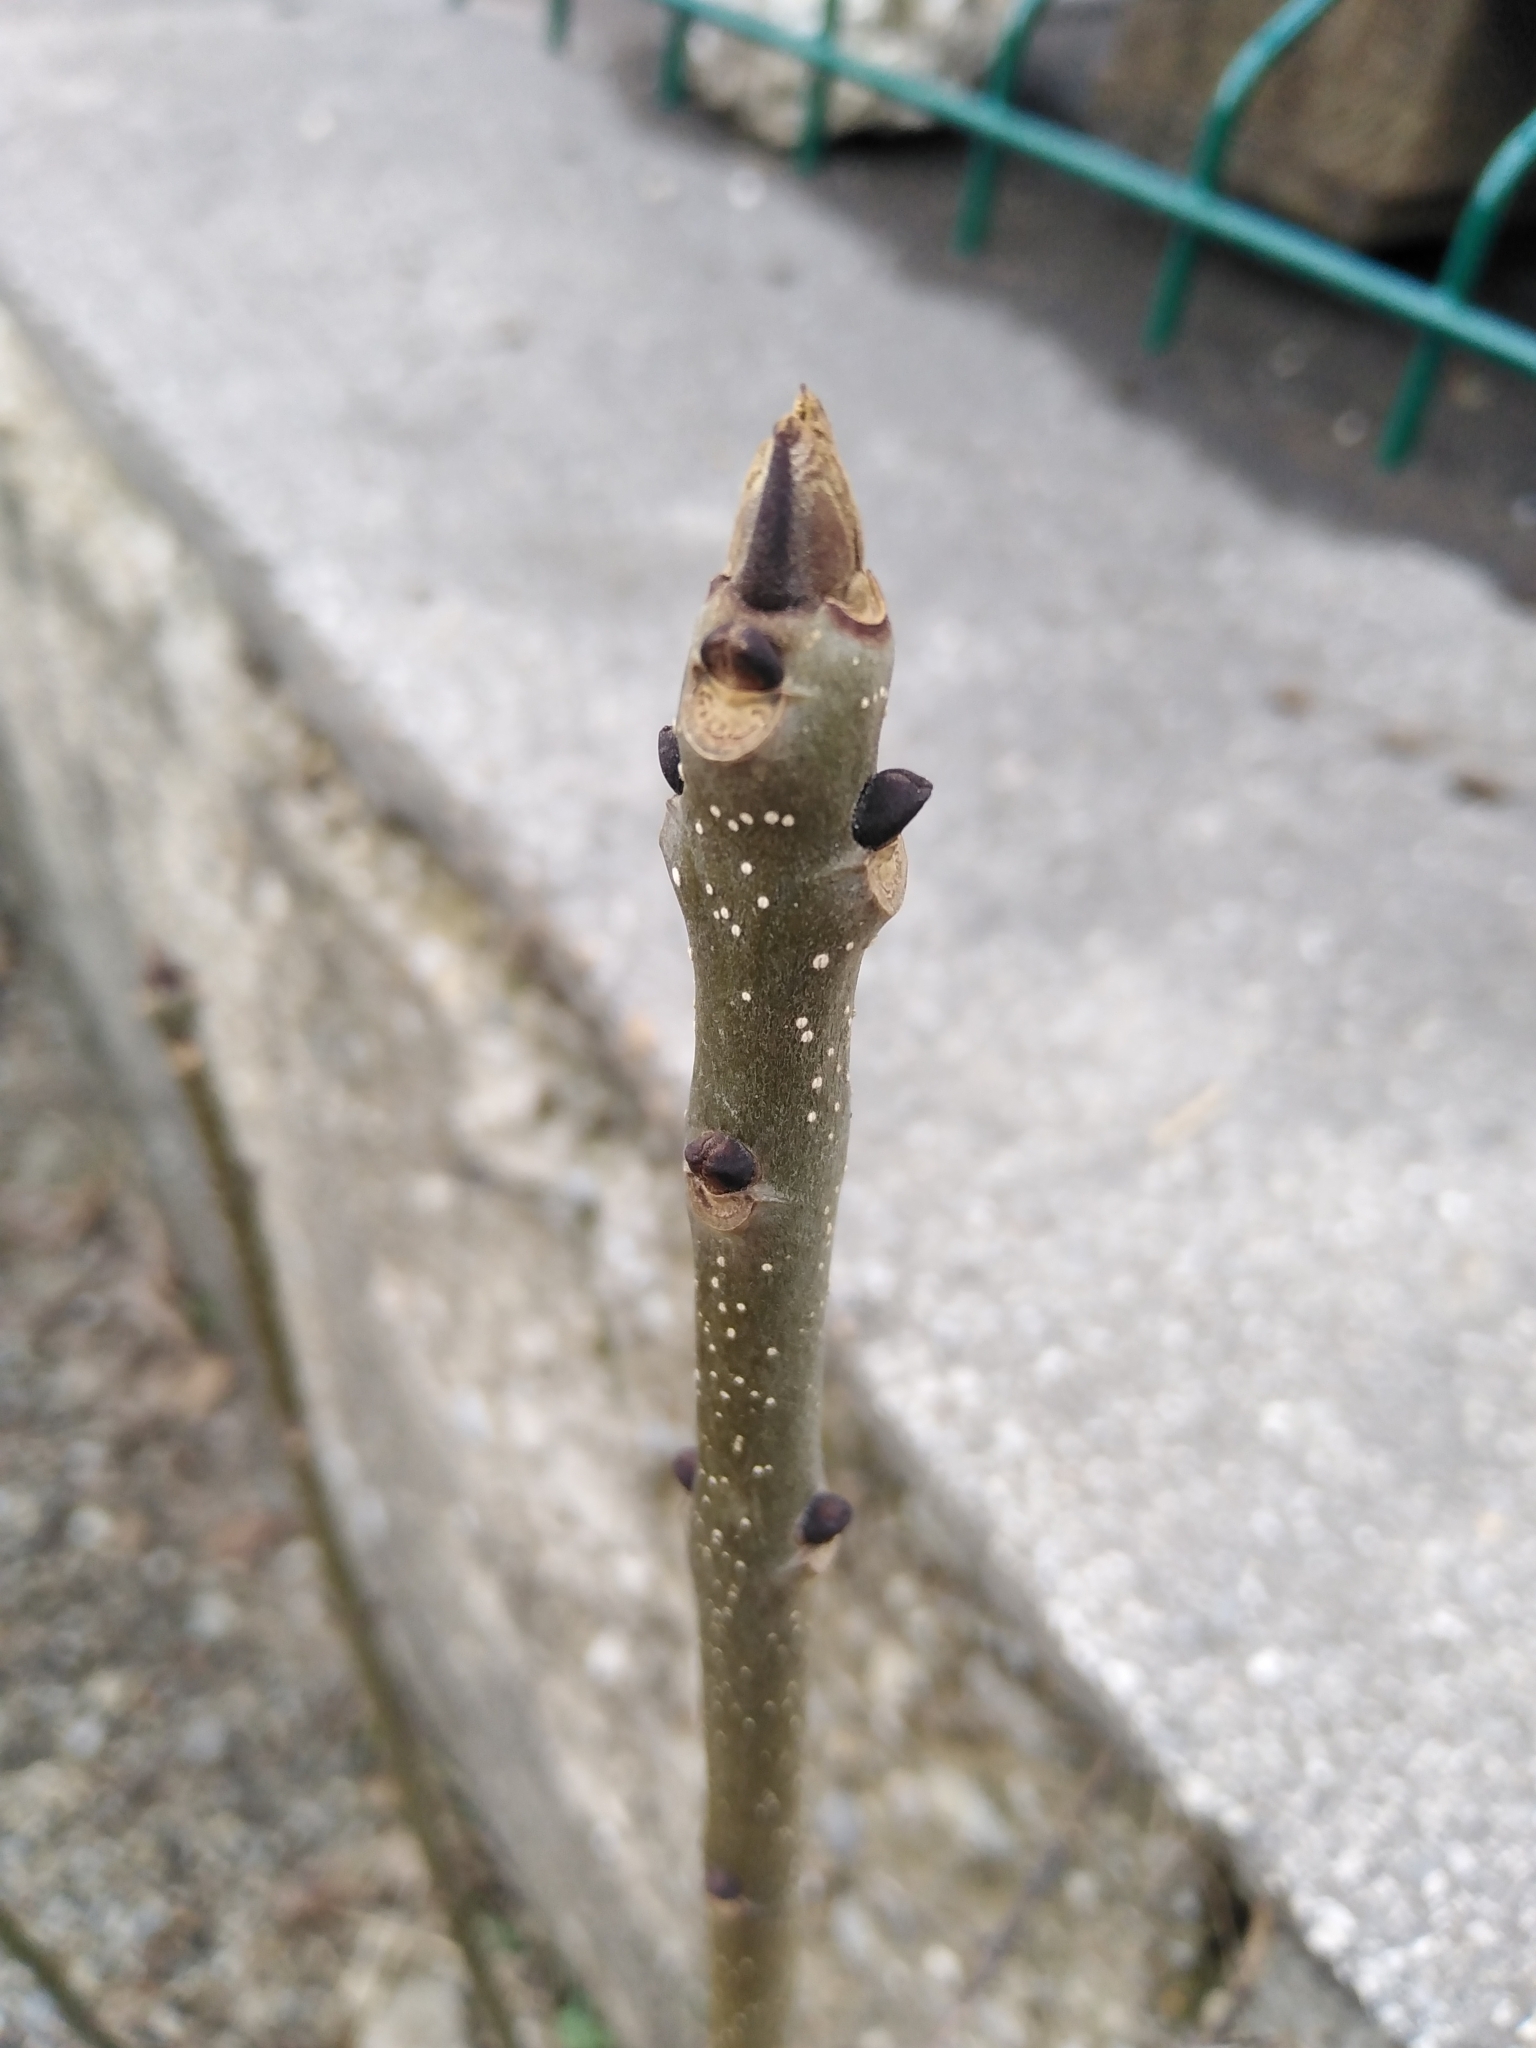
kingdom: Plantae
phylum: Tracheophyta
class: Magnoliopsida
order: Lamiales
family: Oleaceae
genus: Fraxinus
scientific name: Fraxinus excelsior
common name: European ash
